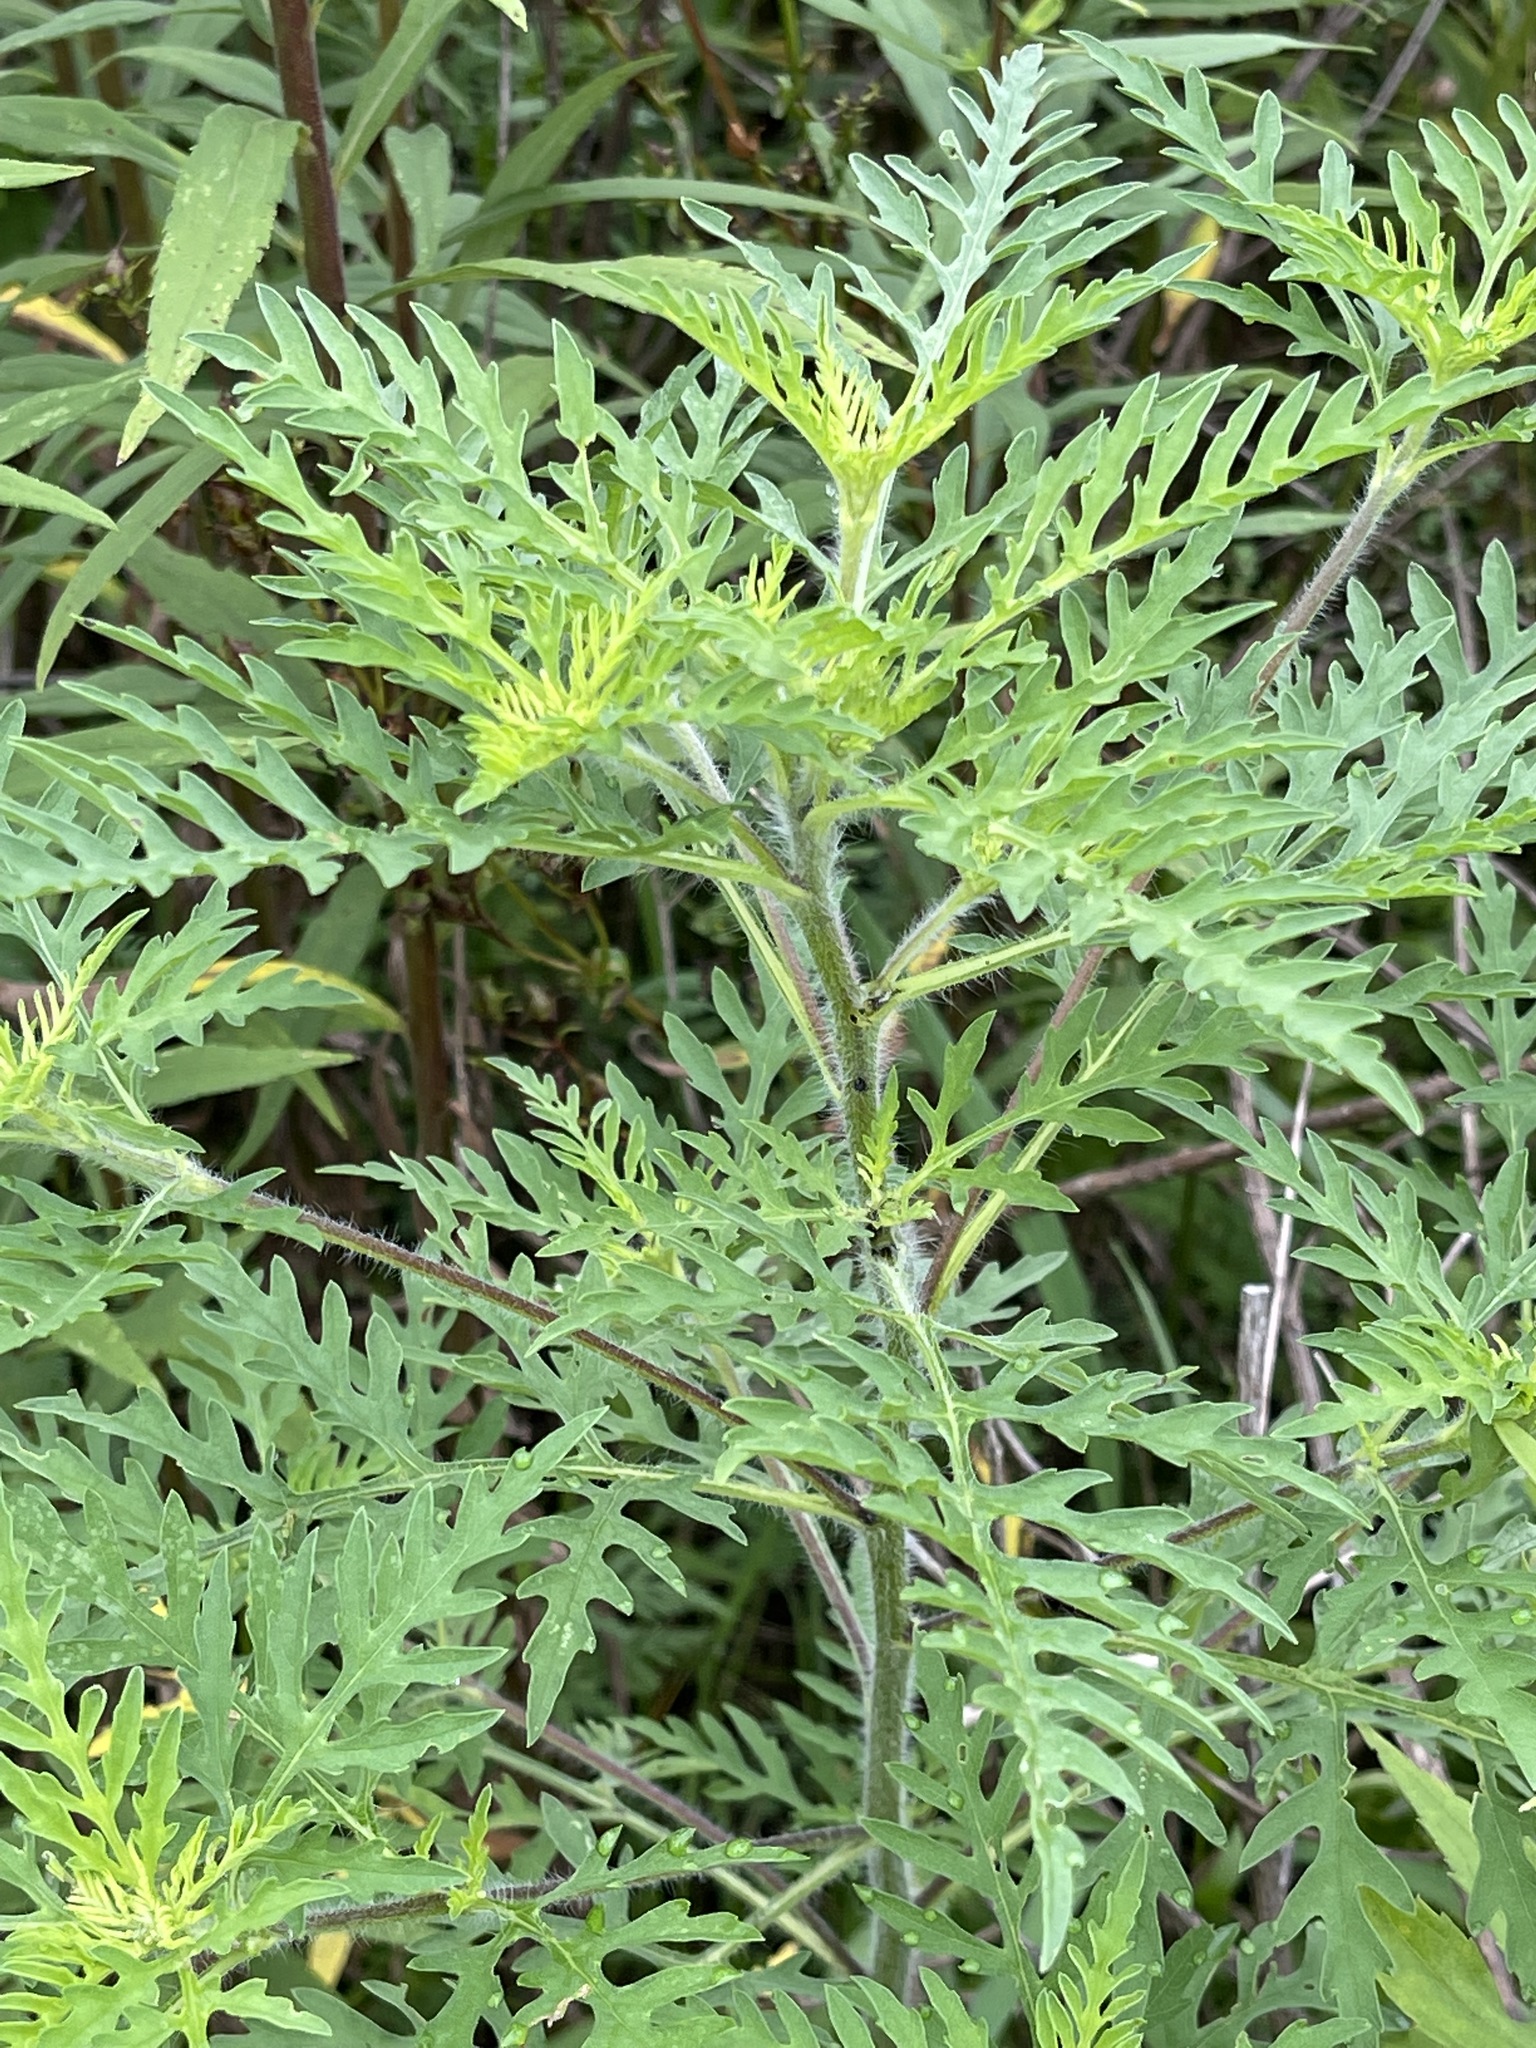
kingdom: Plantae
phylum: Tracheophyta
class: Magnoliopsida
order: Asterales
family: Asteraceae
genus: Ambrosia
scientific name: Ambrosia artemisiifolia
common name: Annual ragweed
